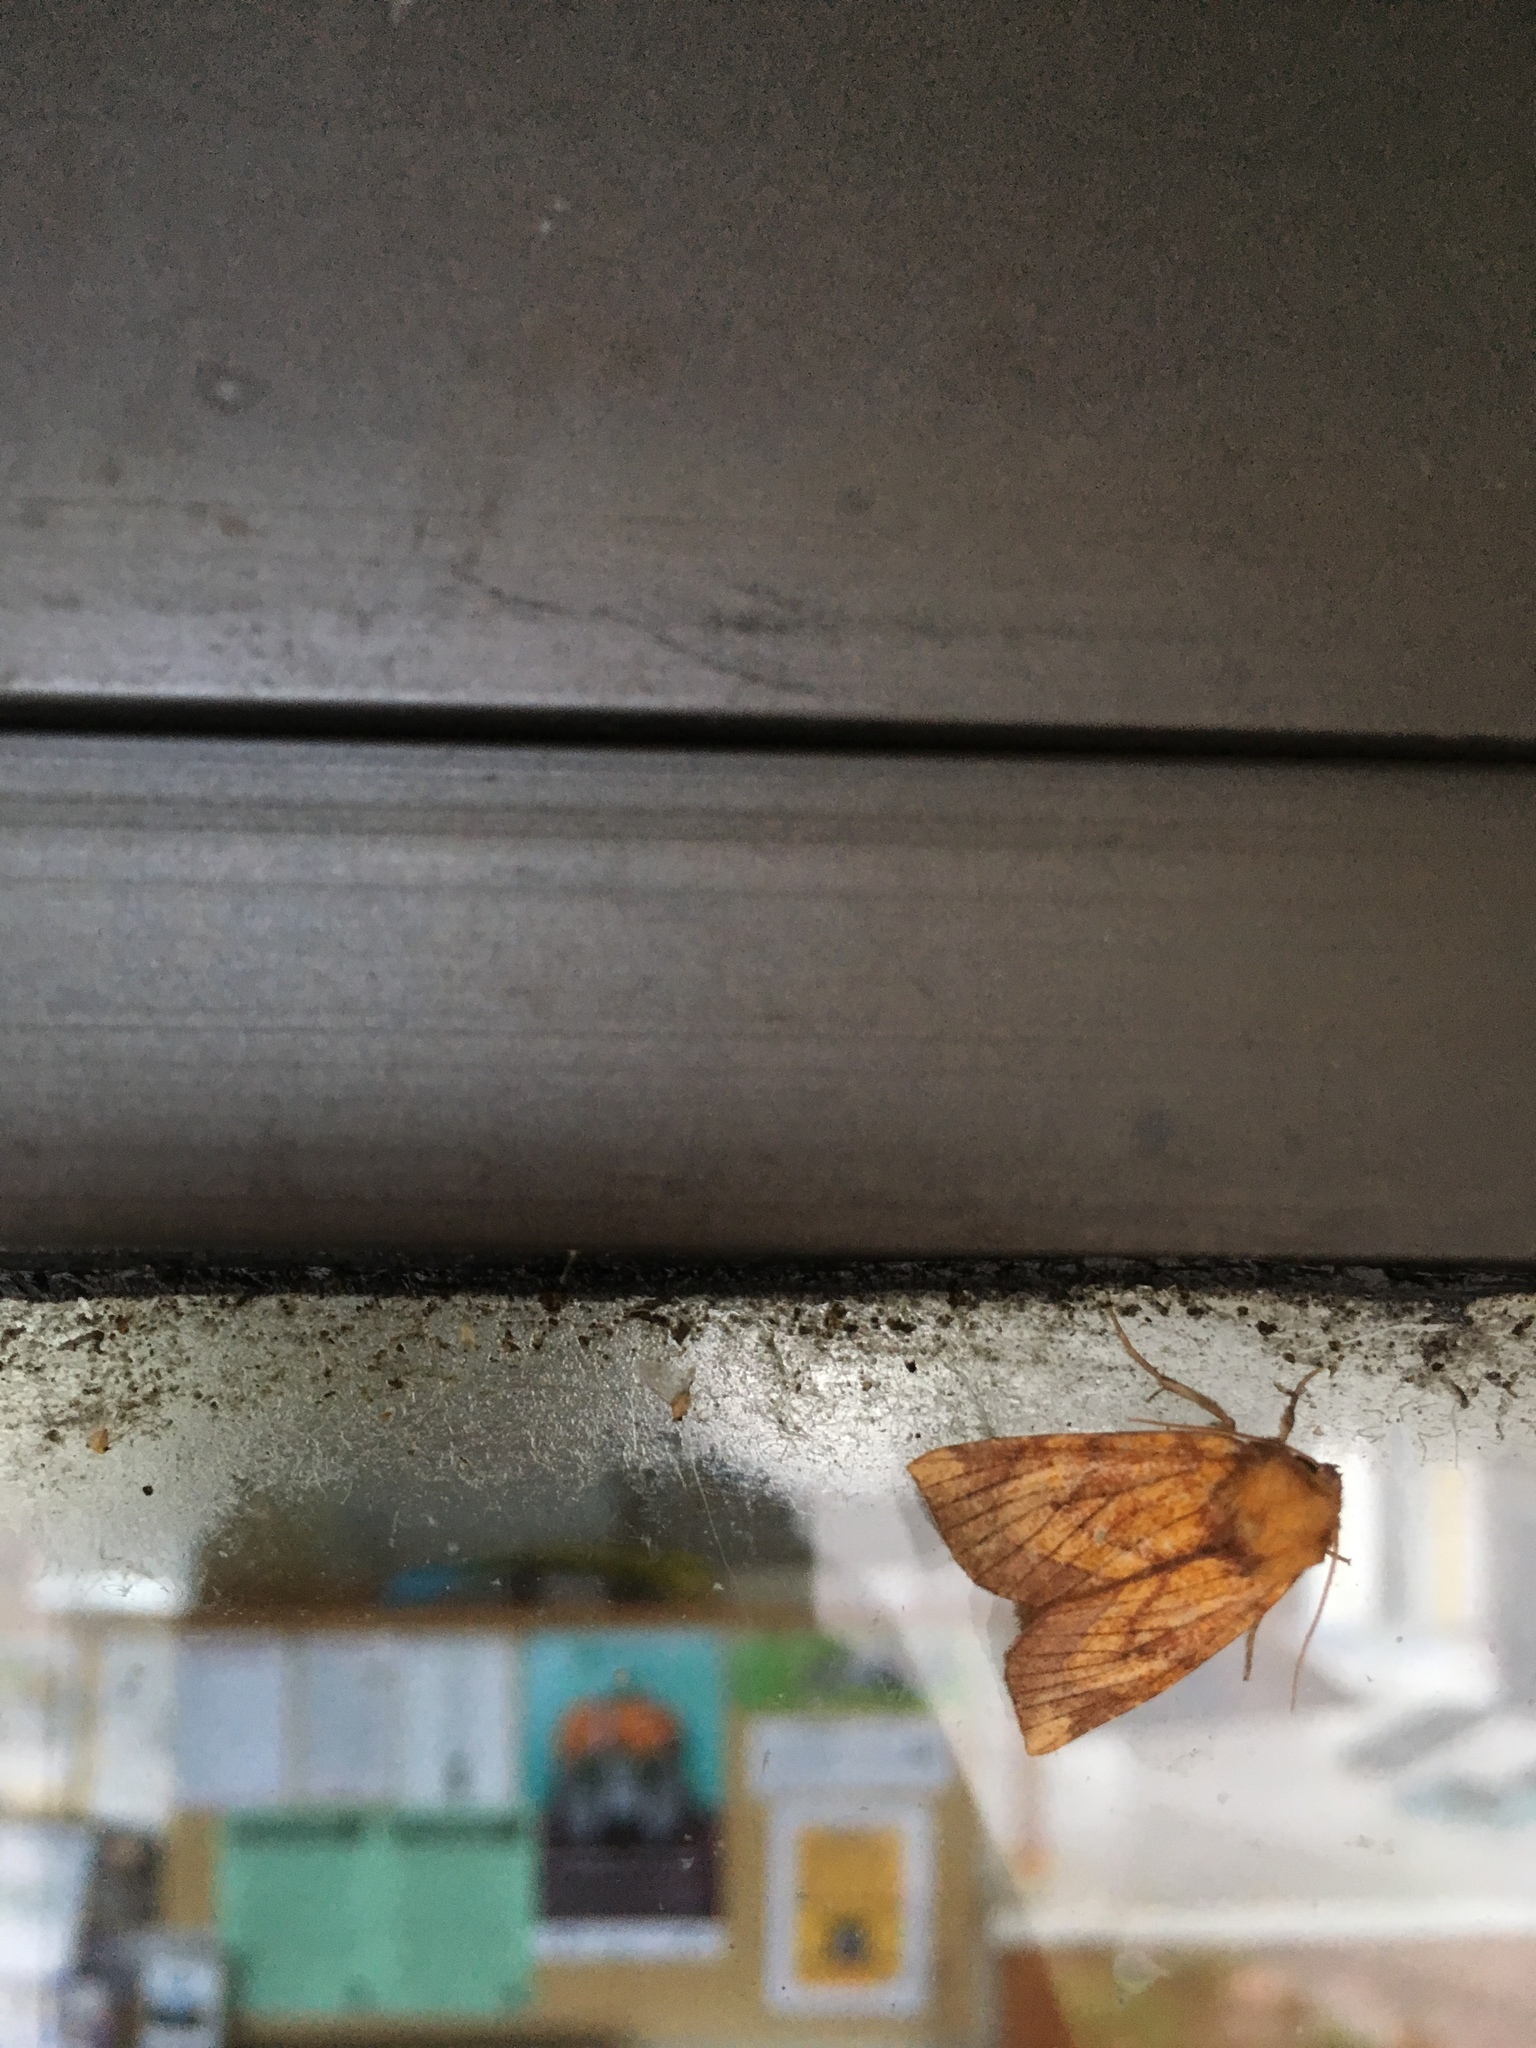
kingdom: Animalia
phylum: Arthropoda
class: Insecta
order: Lepidoptera
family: Noctuidae
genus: Papaipema
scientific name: Papaipema inquaesita
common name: Sensitive fern borer moth
